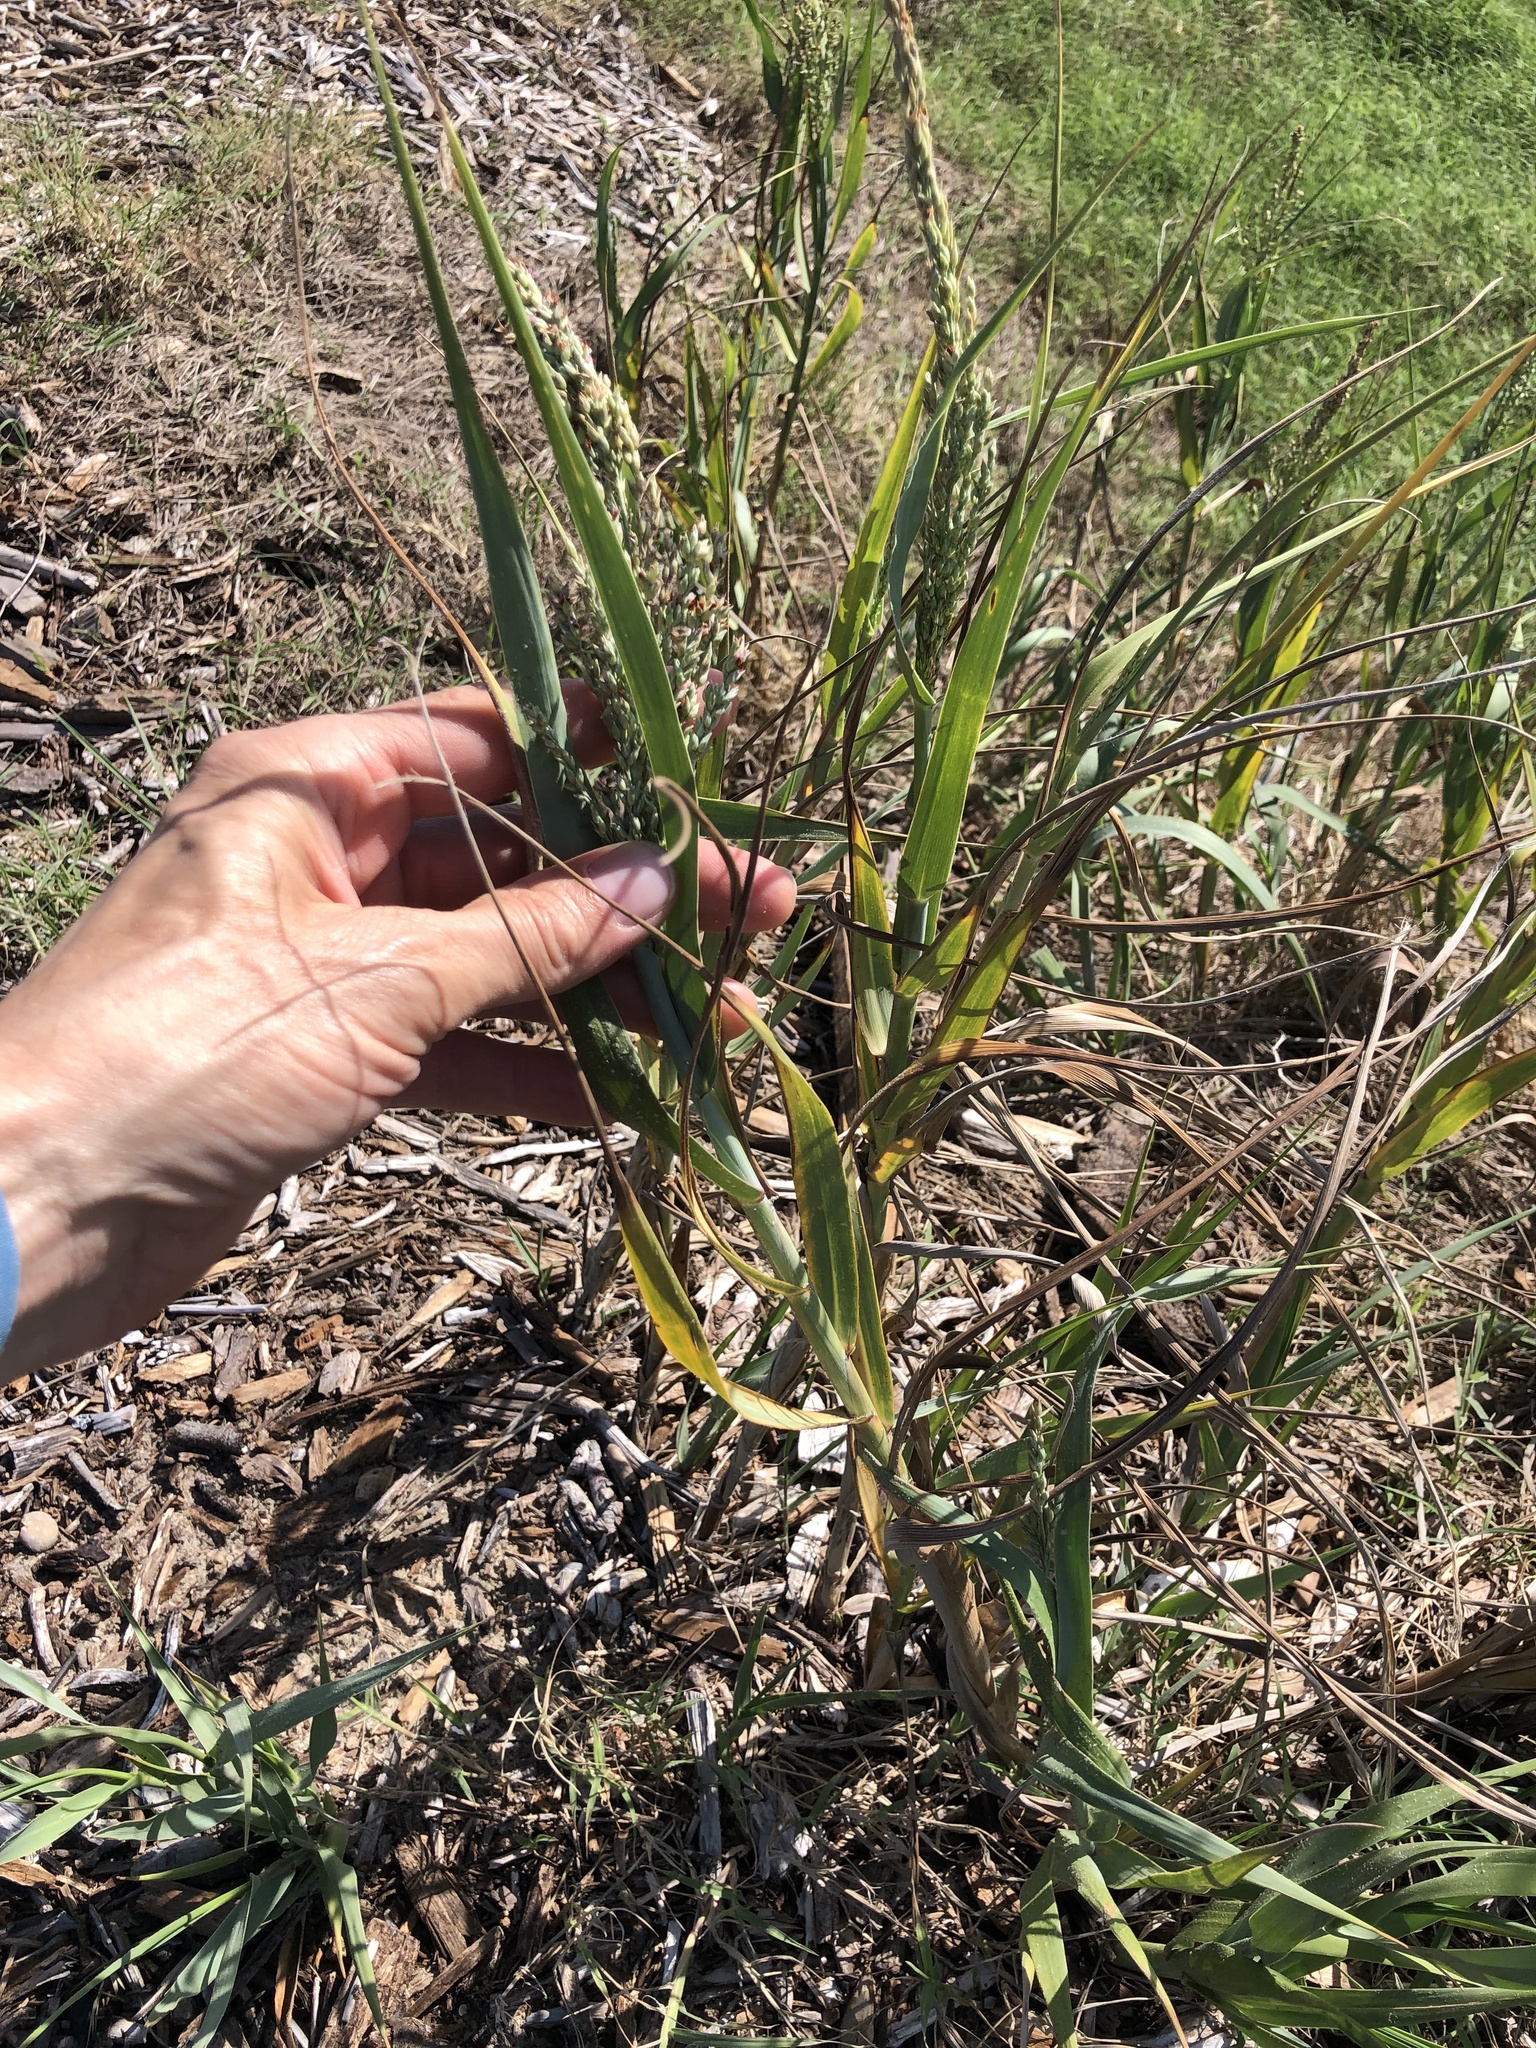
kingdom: Plantae
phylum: Tracheophyta
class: Liliopsida
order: Poales
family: Poaceae
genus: Panicum
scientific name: Panicum amarum
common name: Bitter panicum
